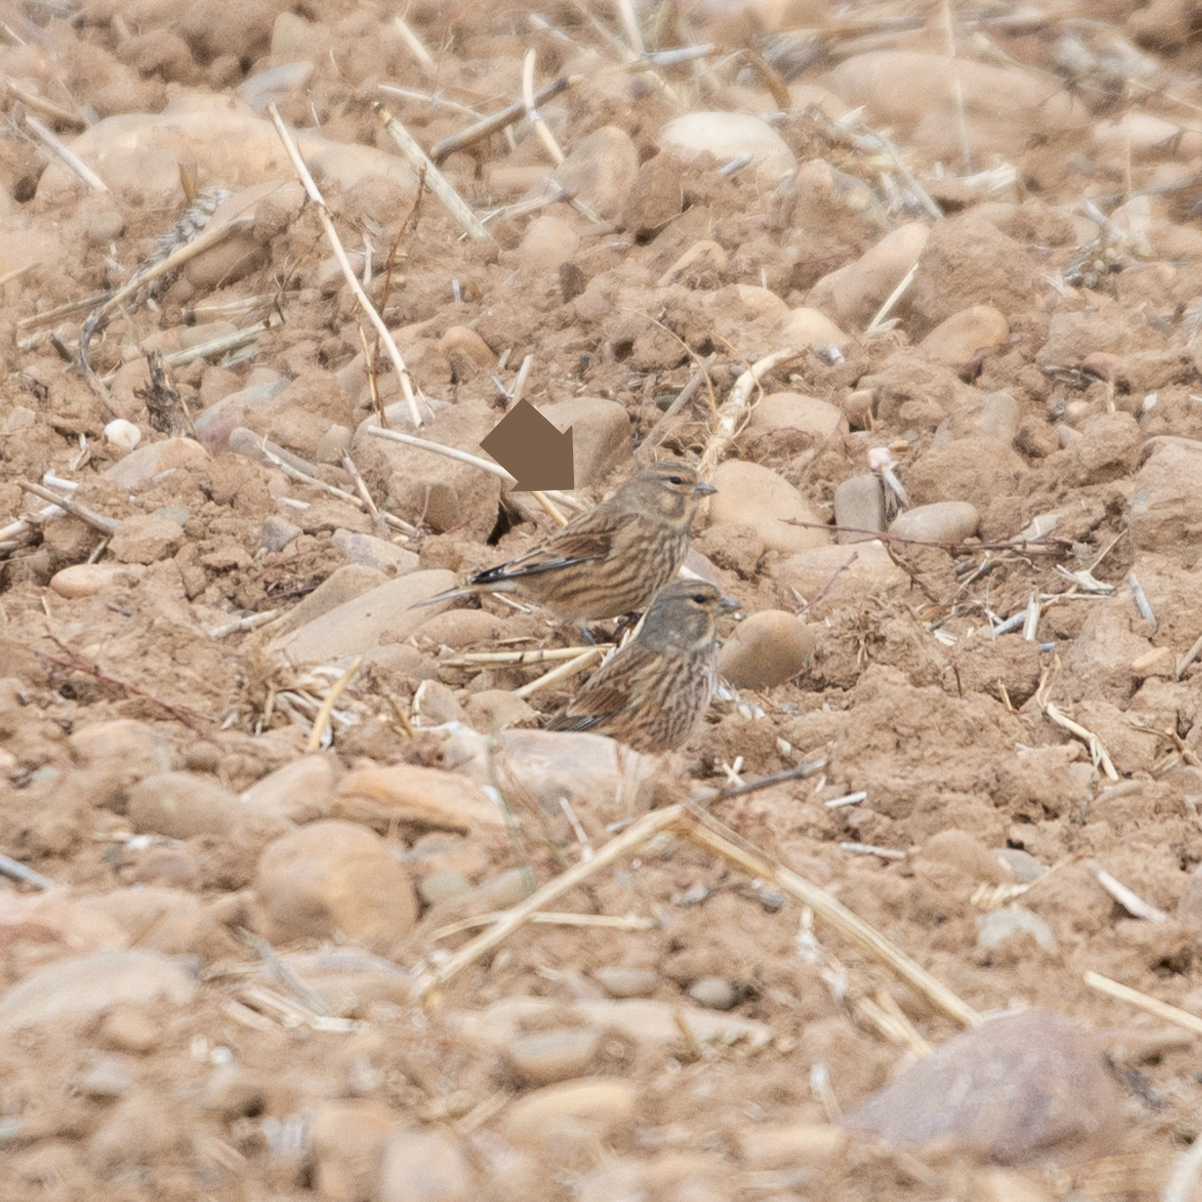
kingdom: Animalia
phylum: Chordata
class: Aves
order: Passeriformes
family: Fringillidae
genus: Linaria
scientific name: Linaria cannabina
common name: Common linnet
